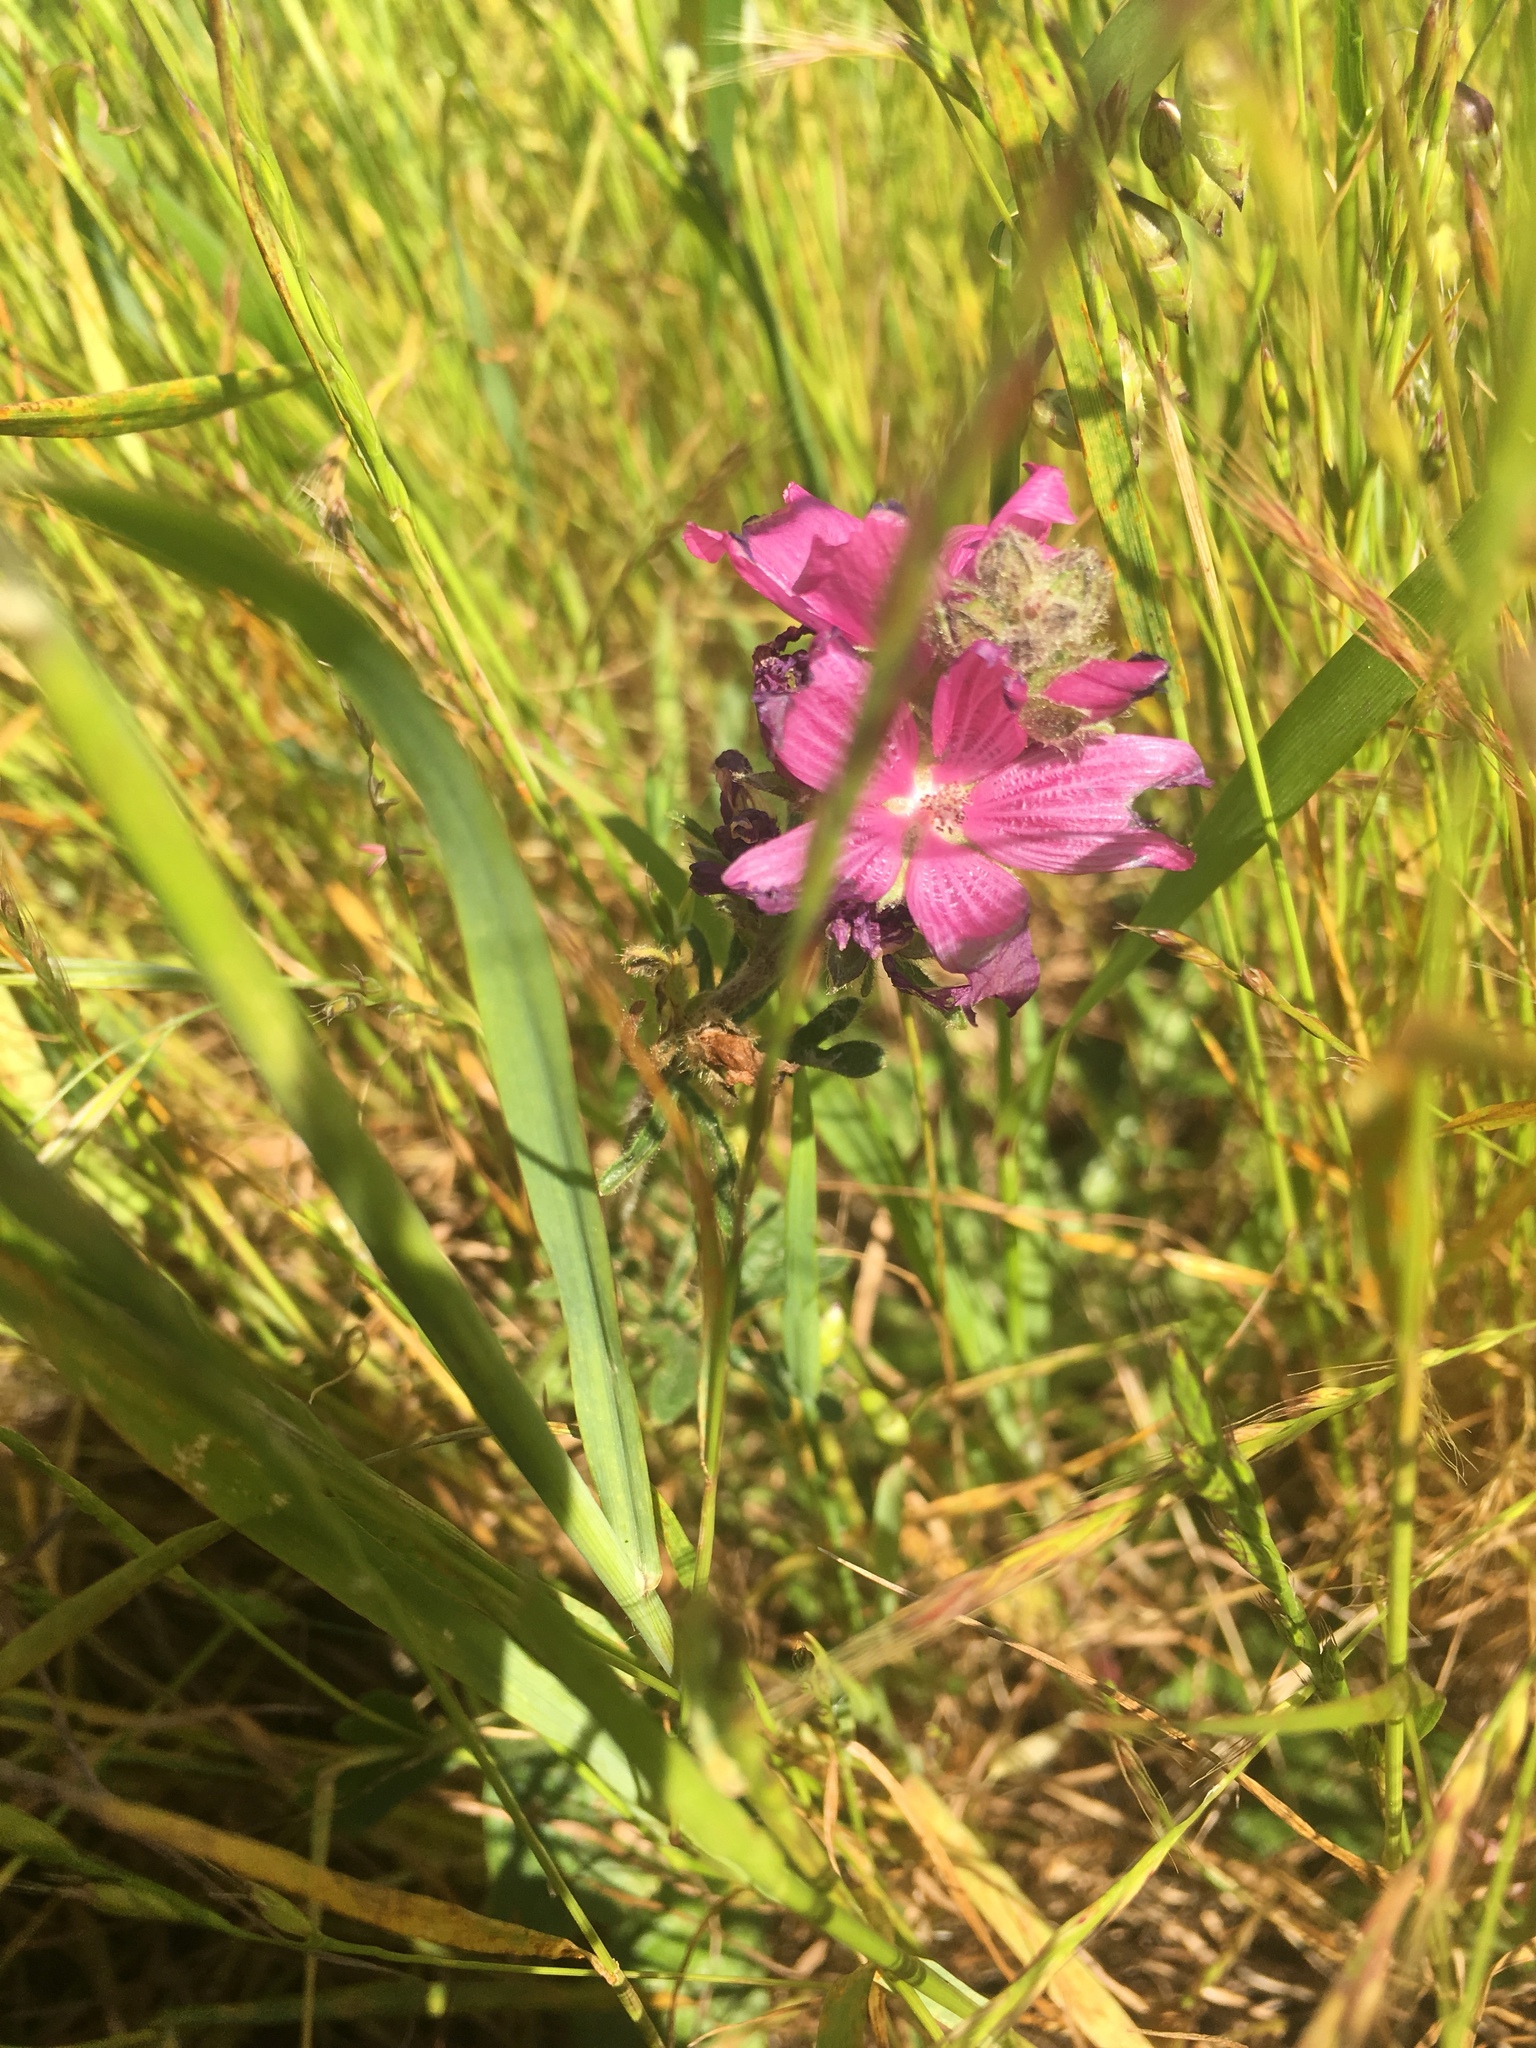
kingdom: Plantae
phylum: Tracheophyta
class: Magnoliopsida
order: Malvales
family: Malvaceae
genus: Sidalcea
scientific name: Sidalcea malviflora
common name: Greek mallow
